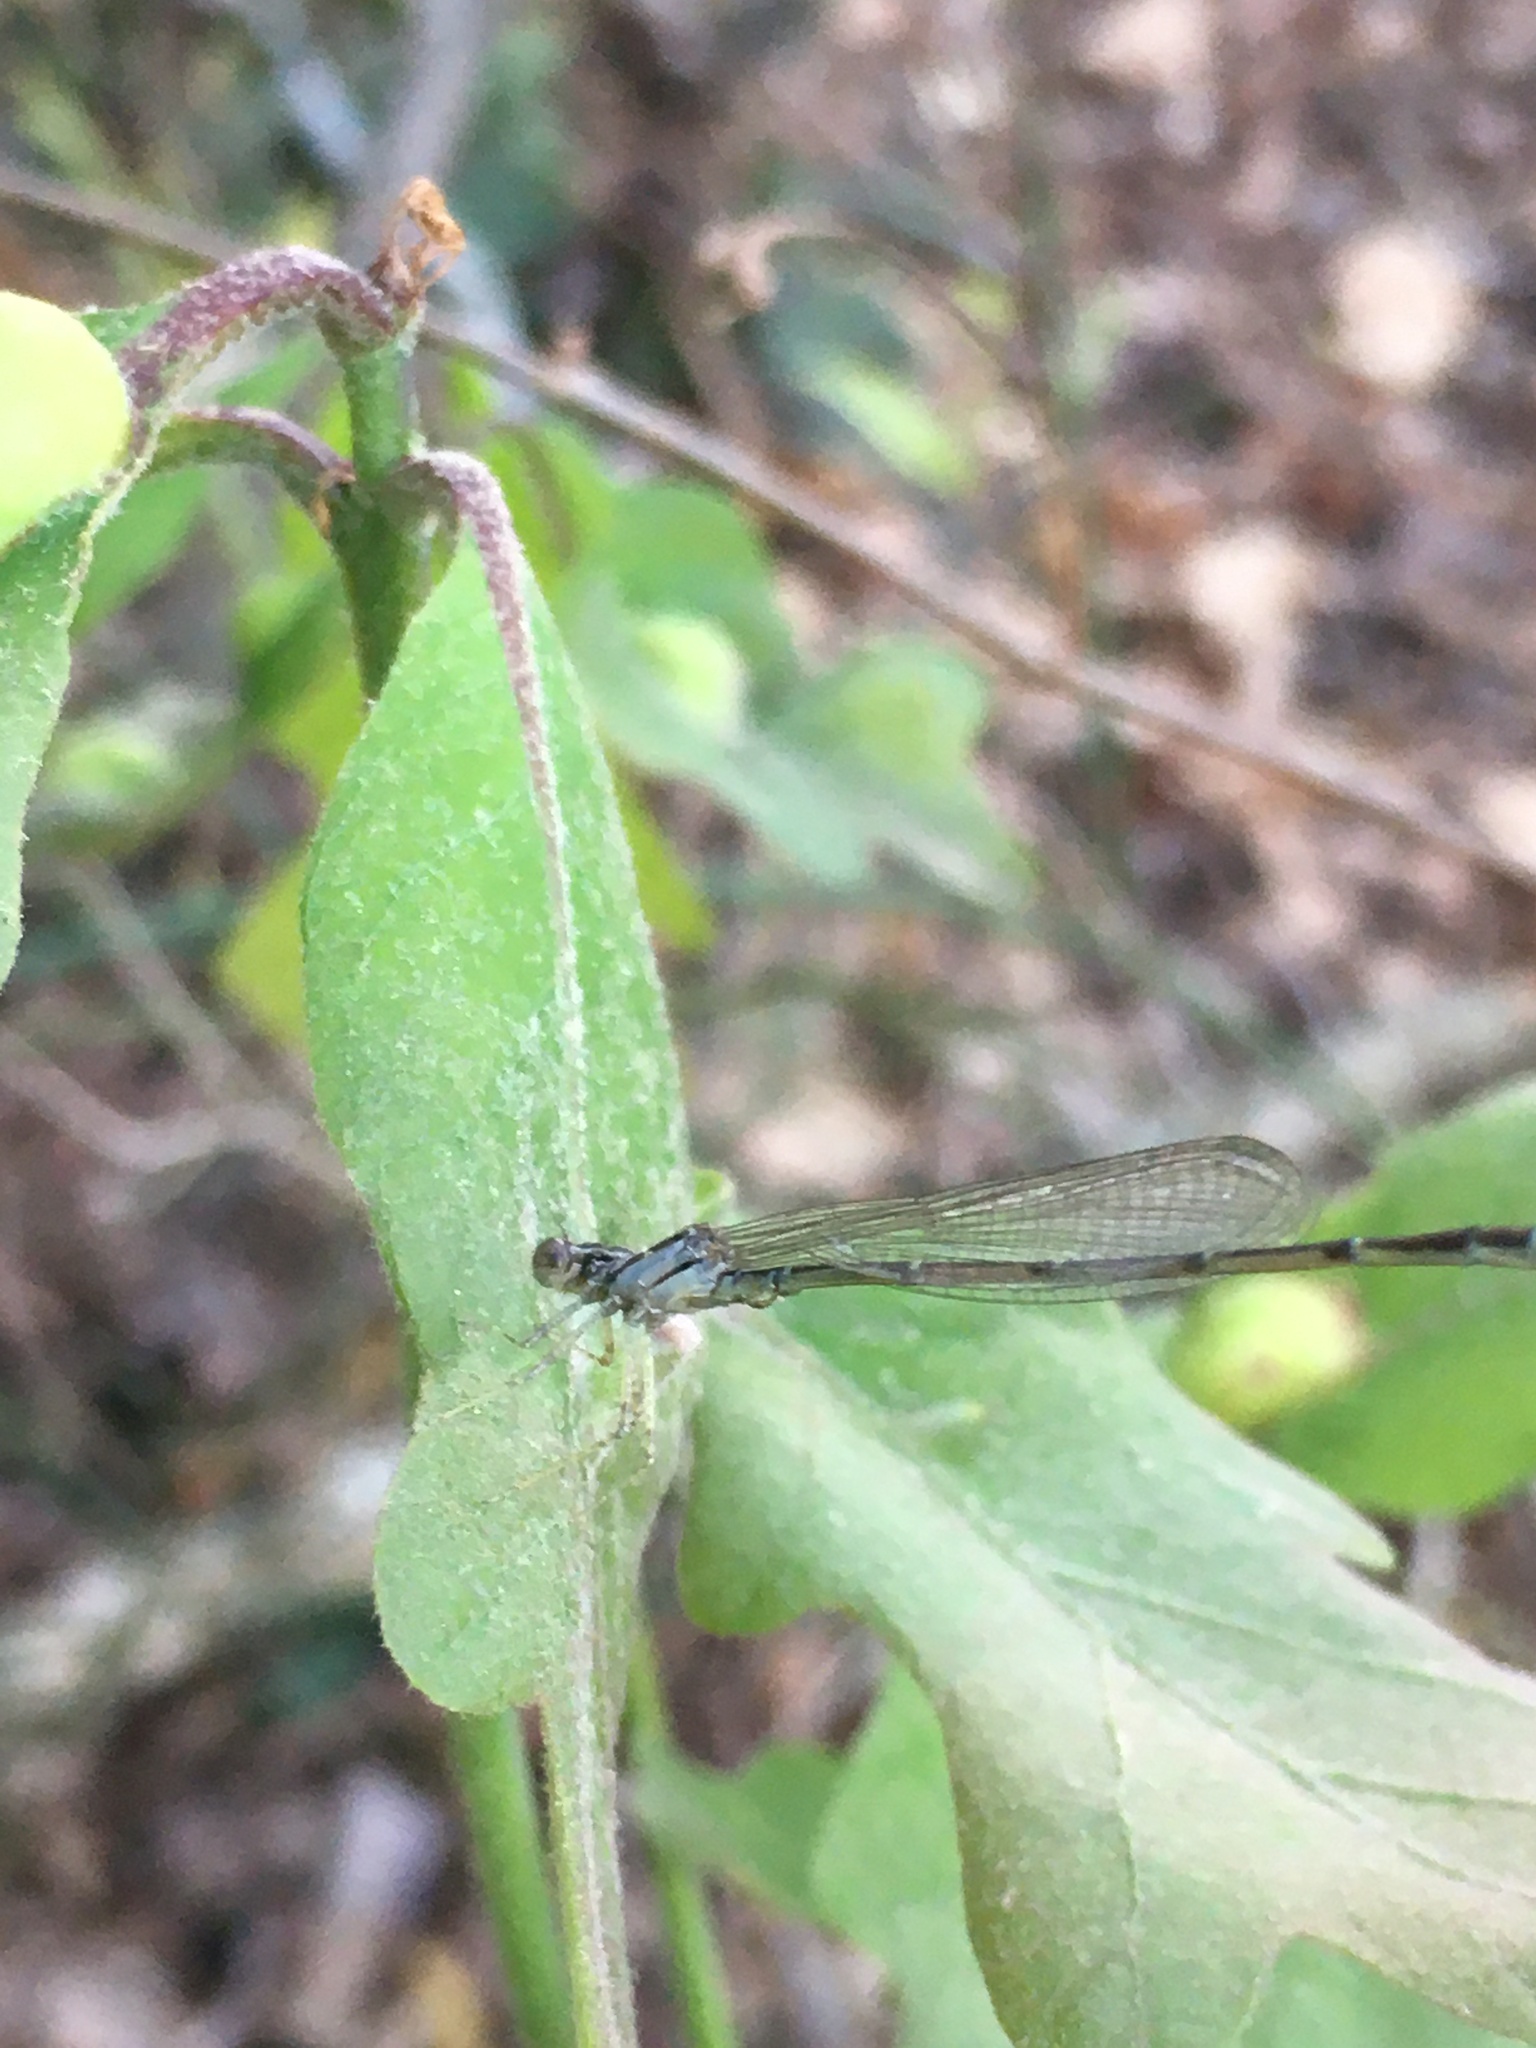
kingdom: Animalia
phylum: Arthropoda
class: Insecta
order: Odonata
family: Coenagrionidae
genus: Enallagma
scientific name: Enallagma signatum
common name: Orange bluet
